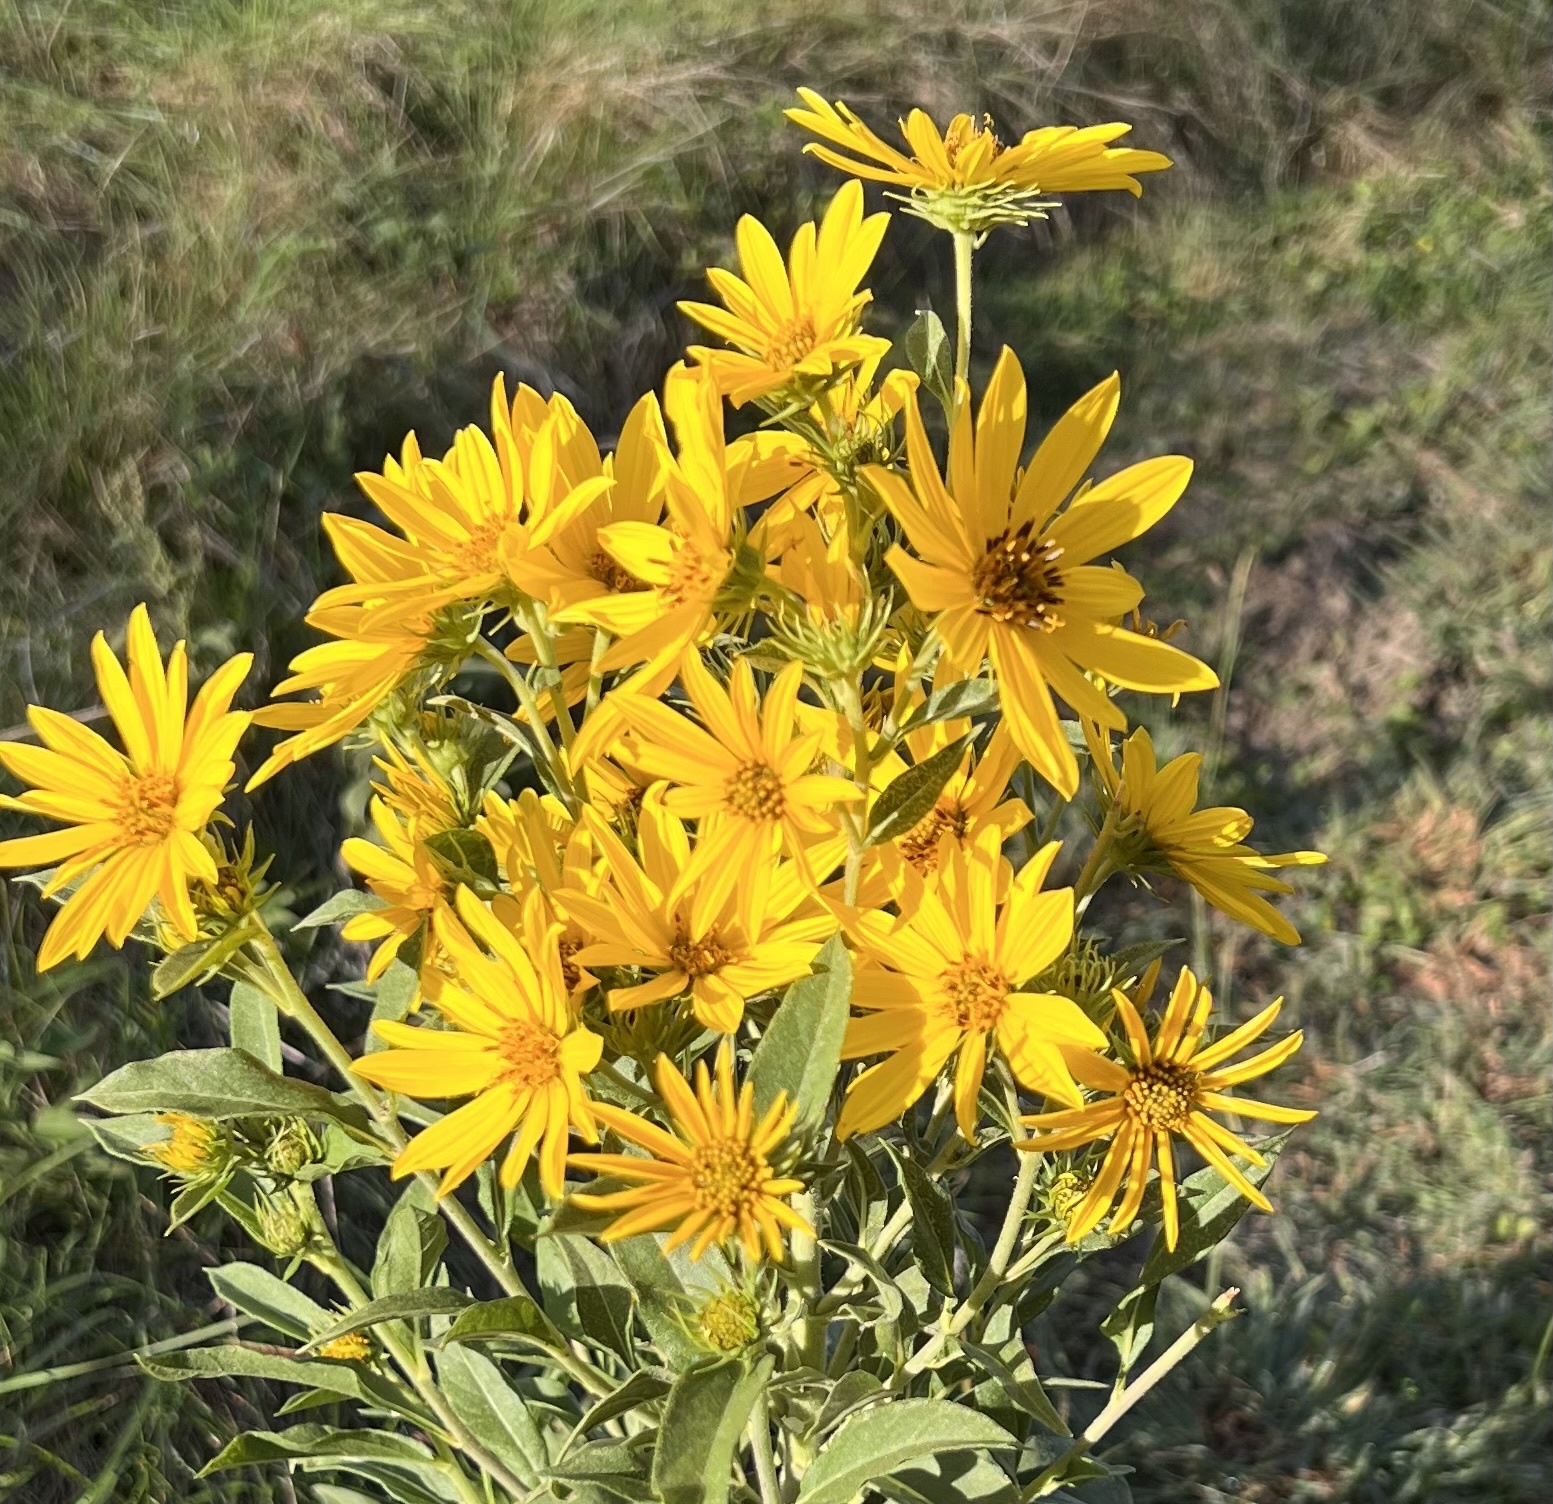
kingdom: Plantae
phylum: Tracheophyta
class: Magnoliopsida
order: Asterales
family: Asteraceae
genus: Helianthus
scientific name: Helianthus maximiliani
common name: Maximilian's sunflower
